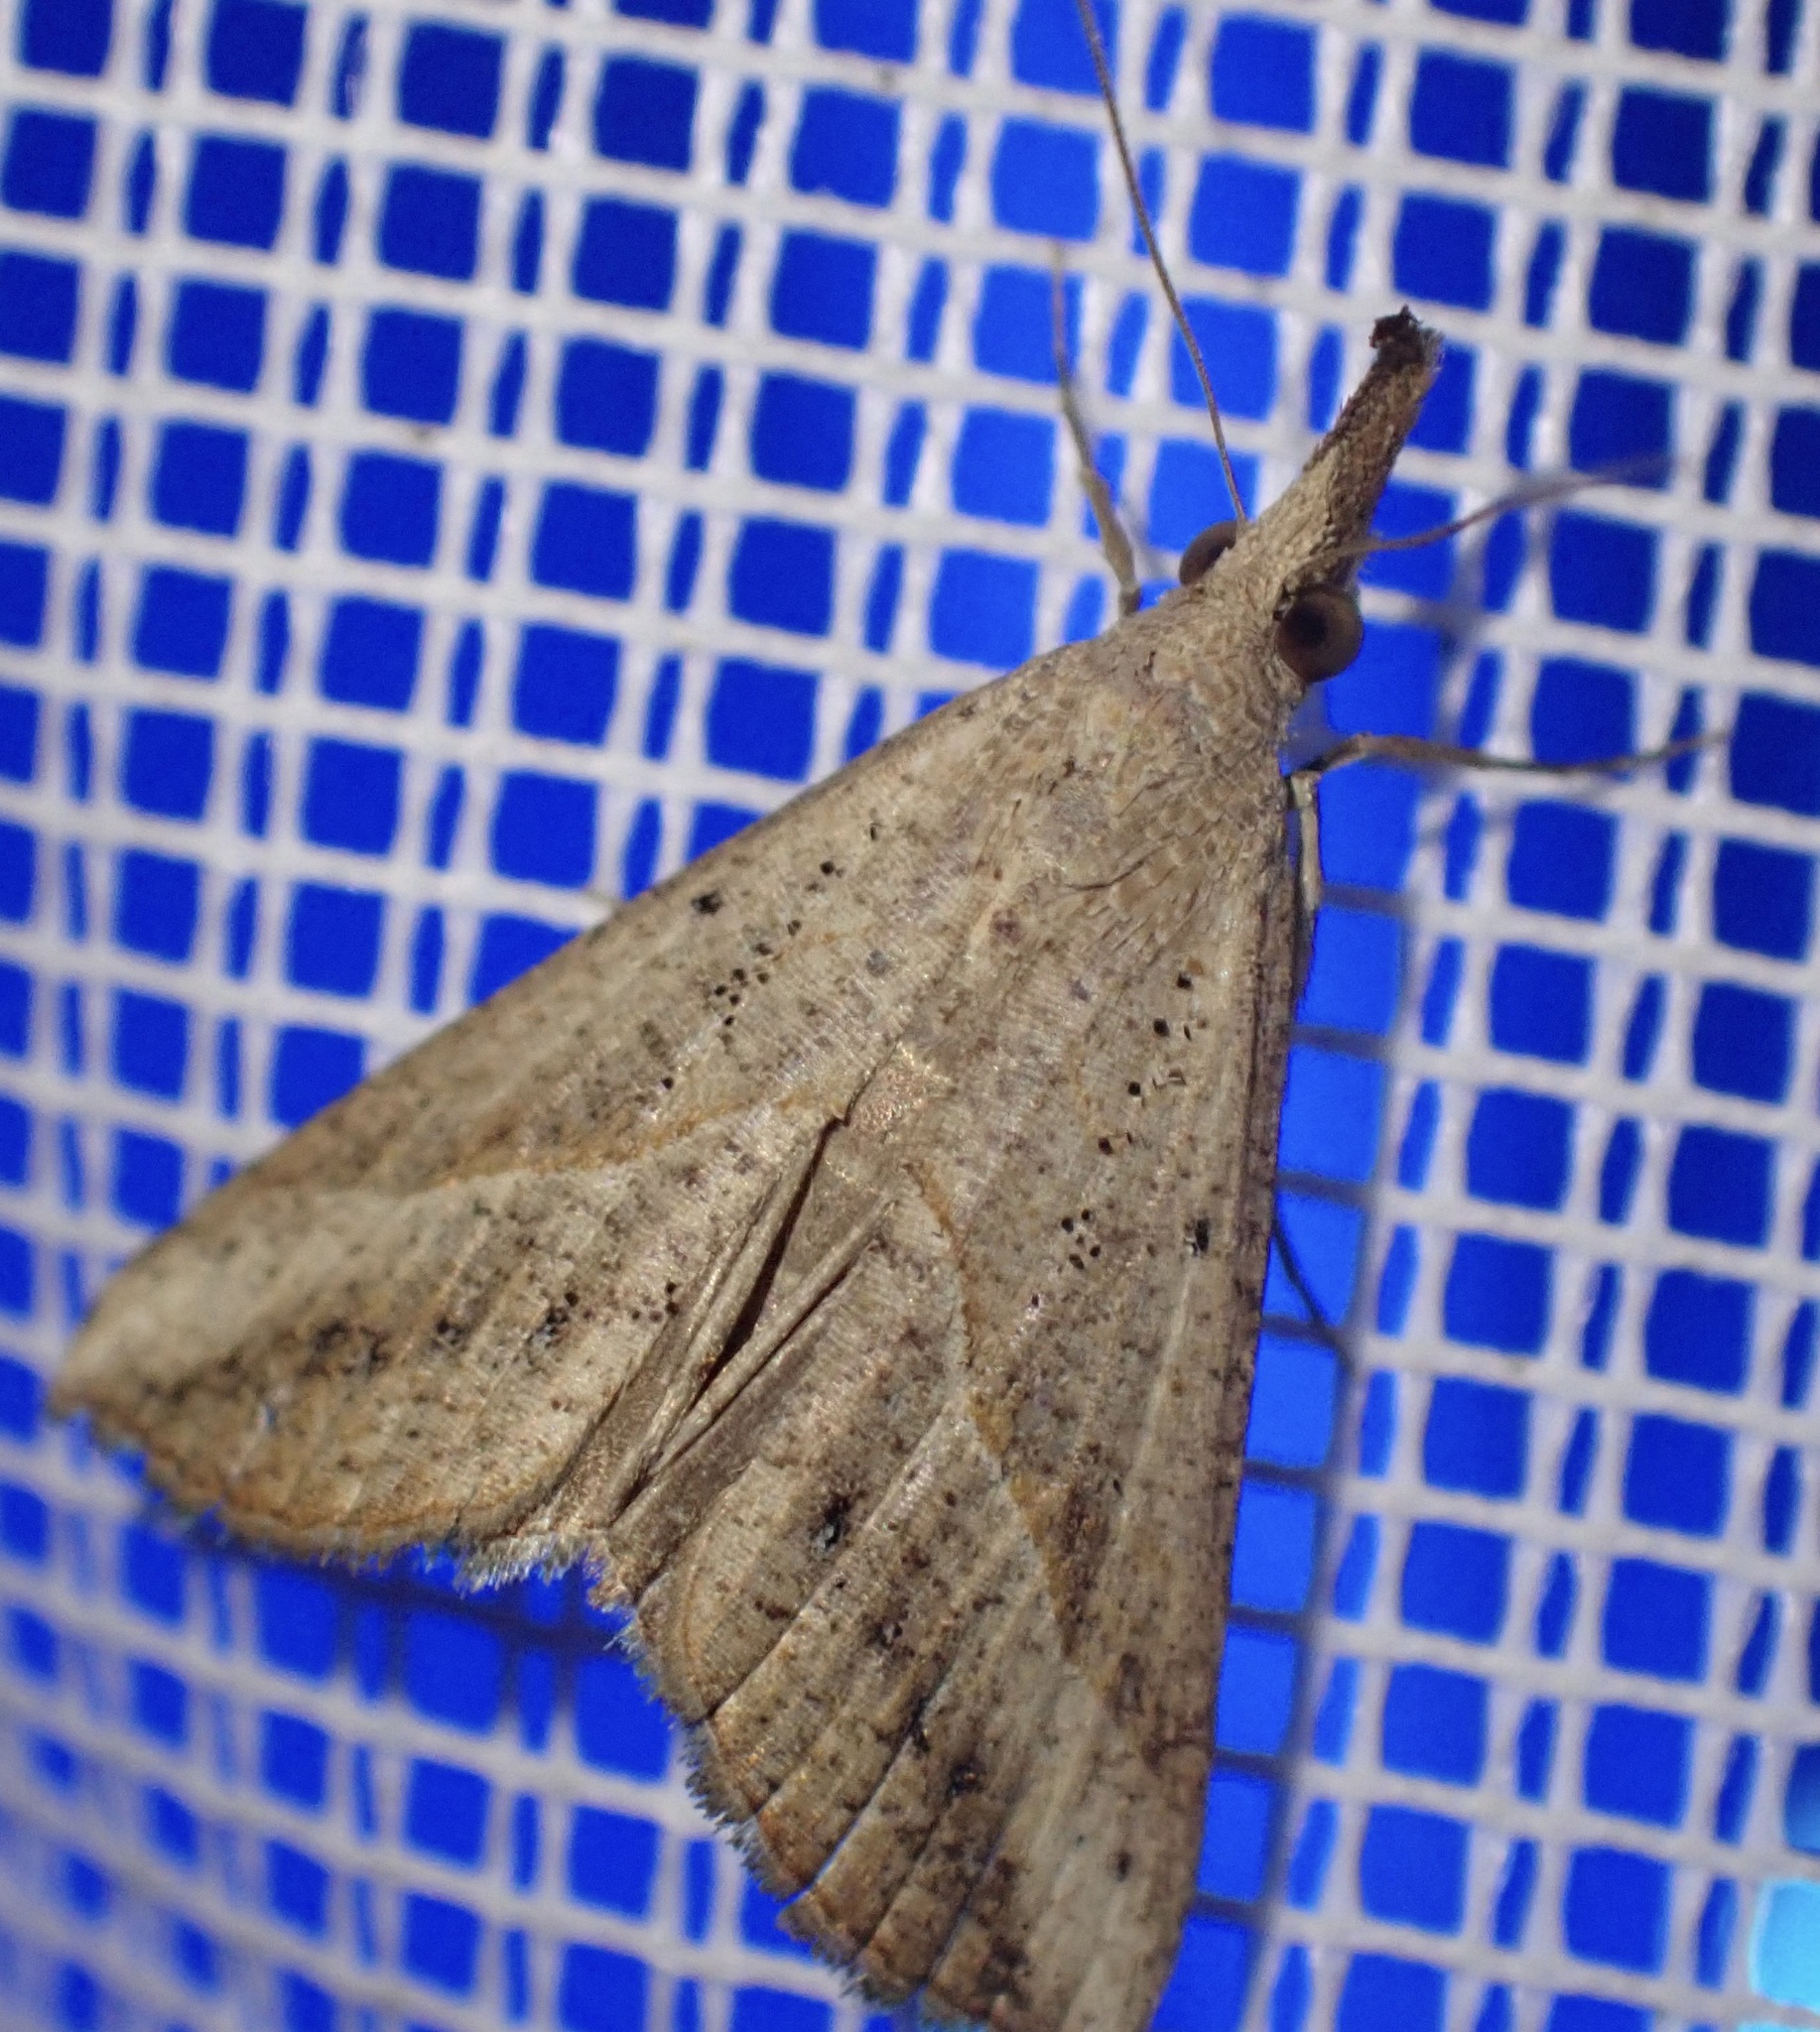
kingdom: Animalia
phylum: Arthropoda
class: Insecta
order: Lepidoptera
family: Erebidae
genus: Hypena
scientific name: Hypena lividalis
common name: Chevron snout
